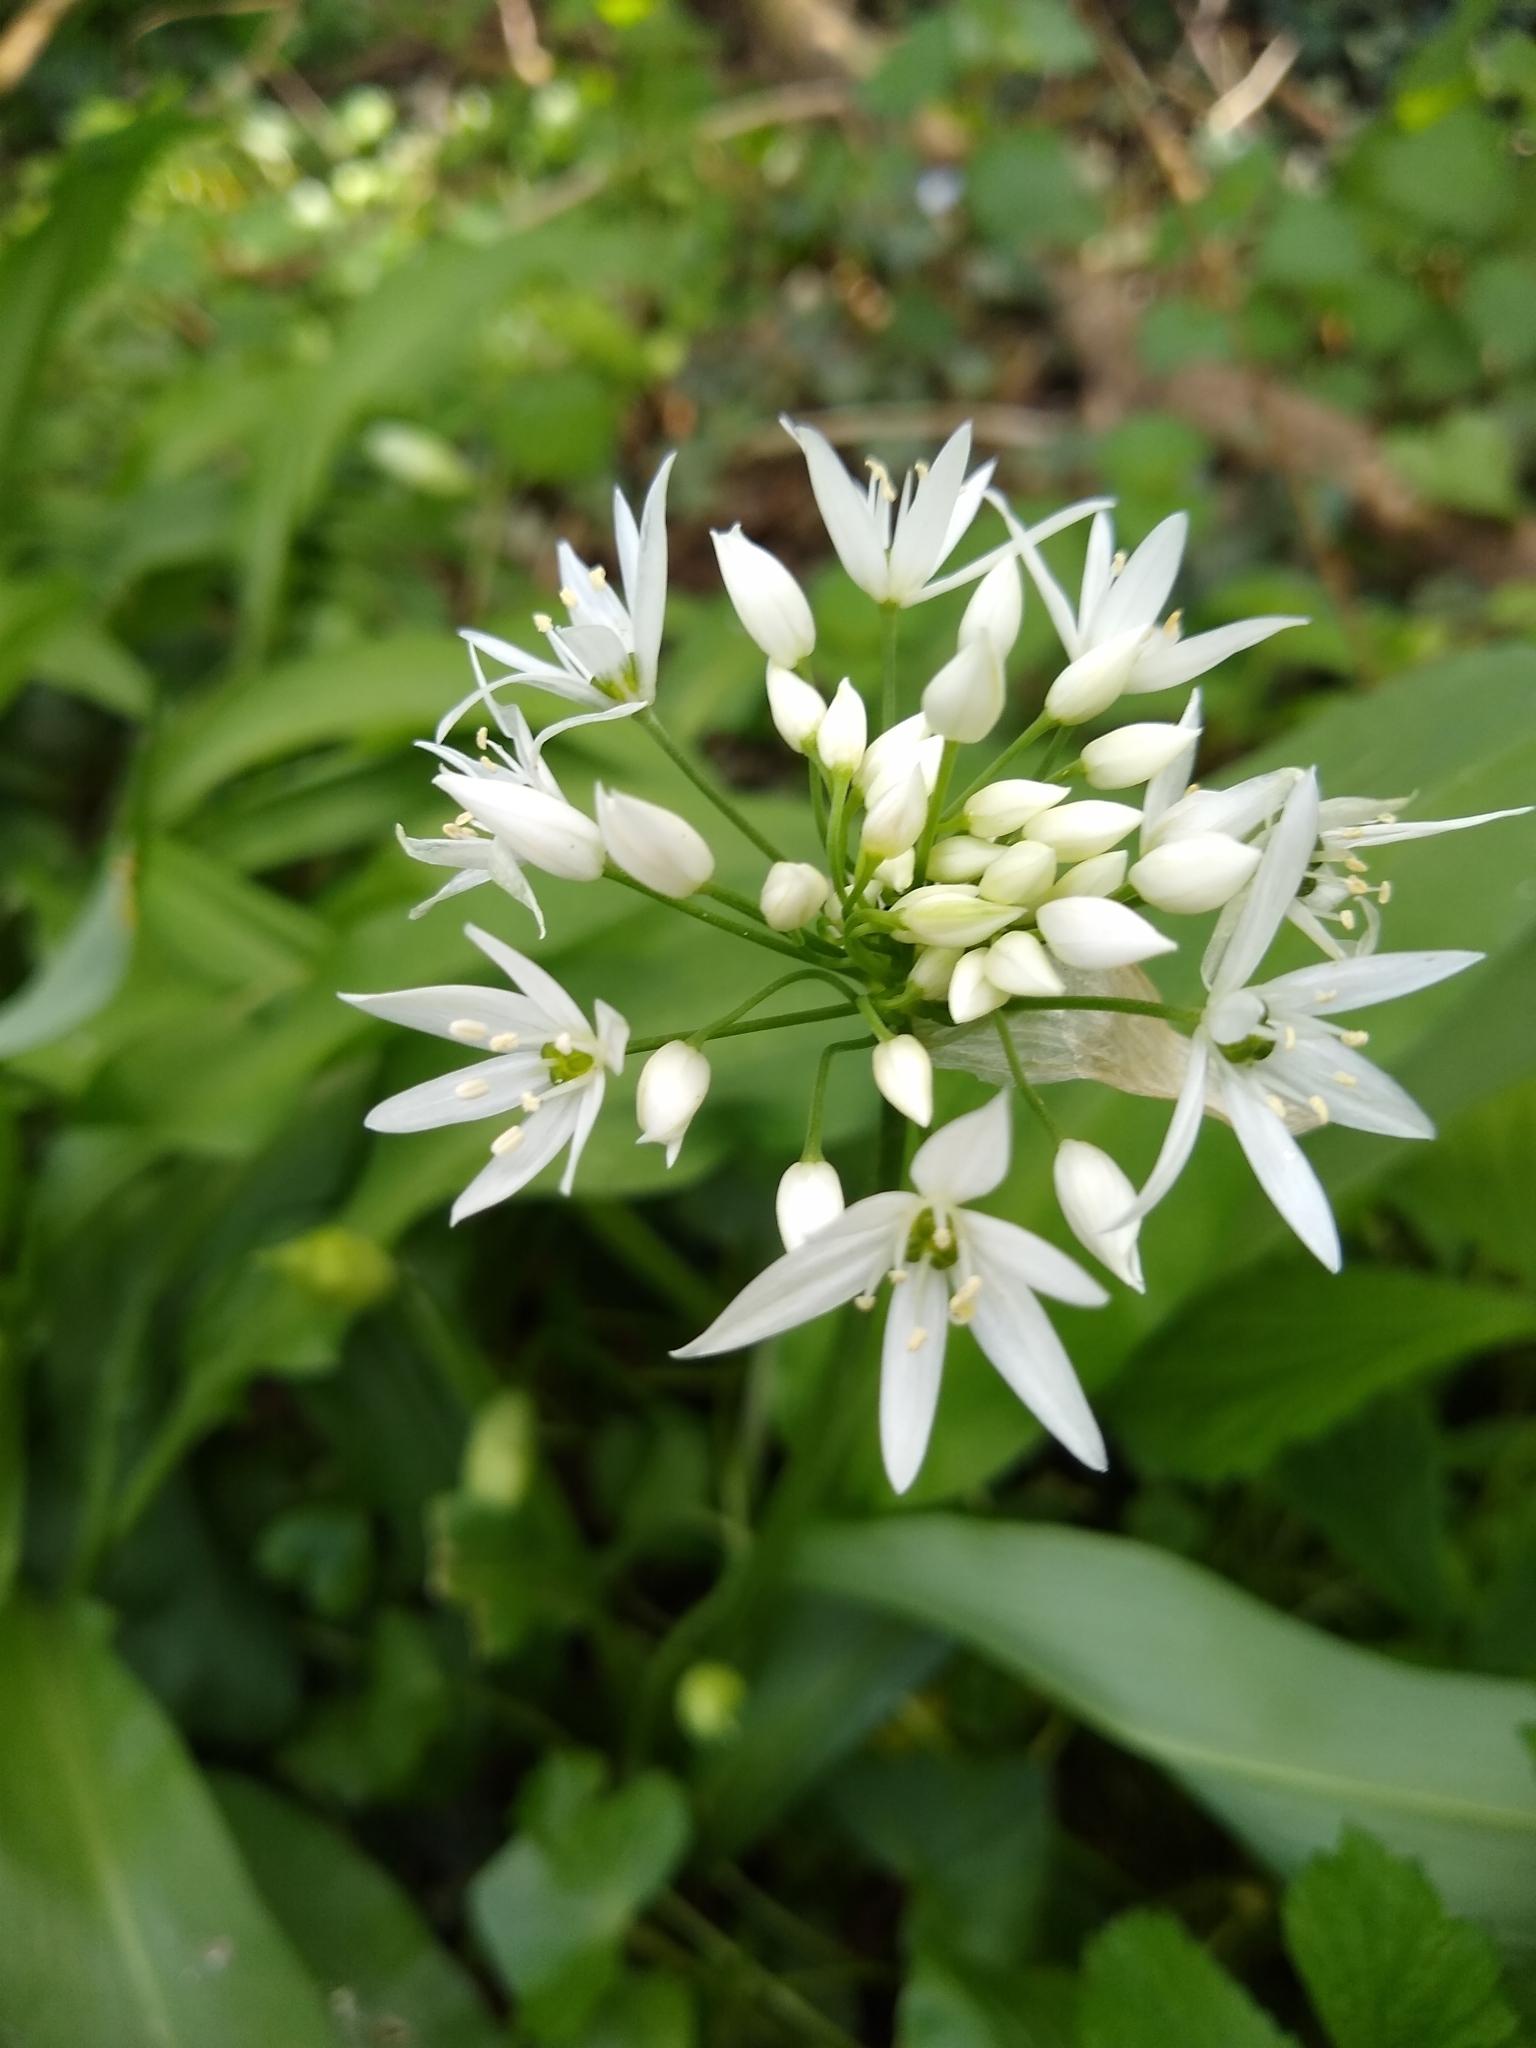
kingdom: Plantae
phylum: Tracheophyta
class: Liliopsida
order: Asparagales
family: Amaryllidaceae
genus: Allium
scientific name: Allium ursinum
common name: Ramsons
